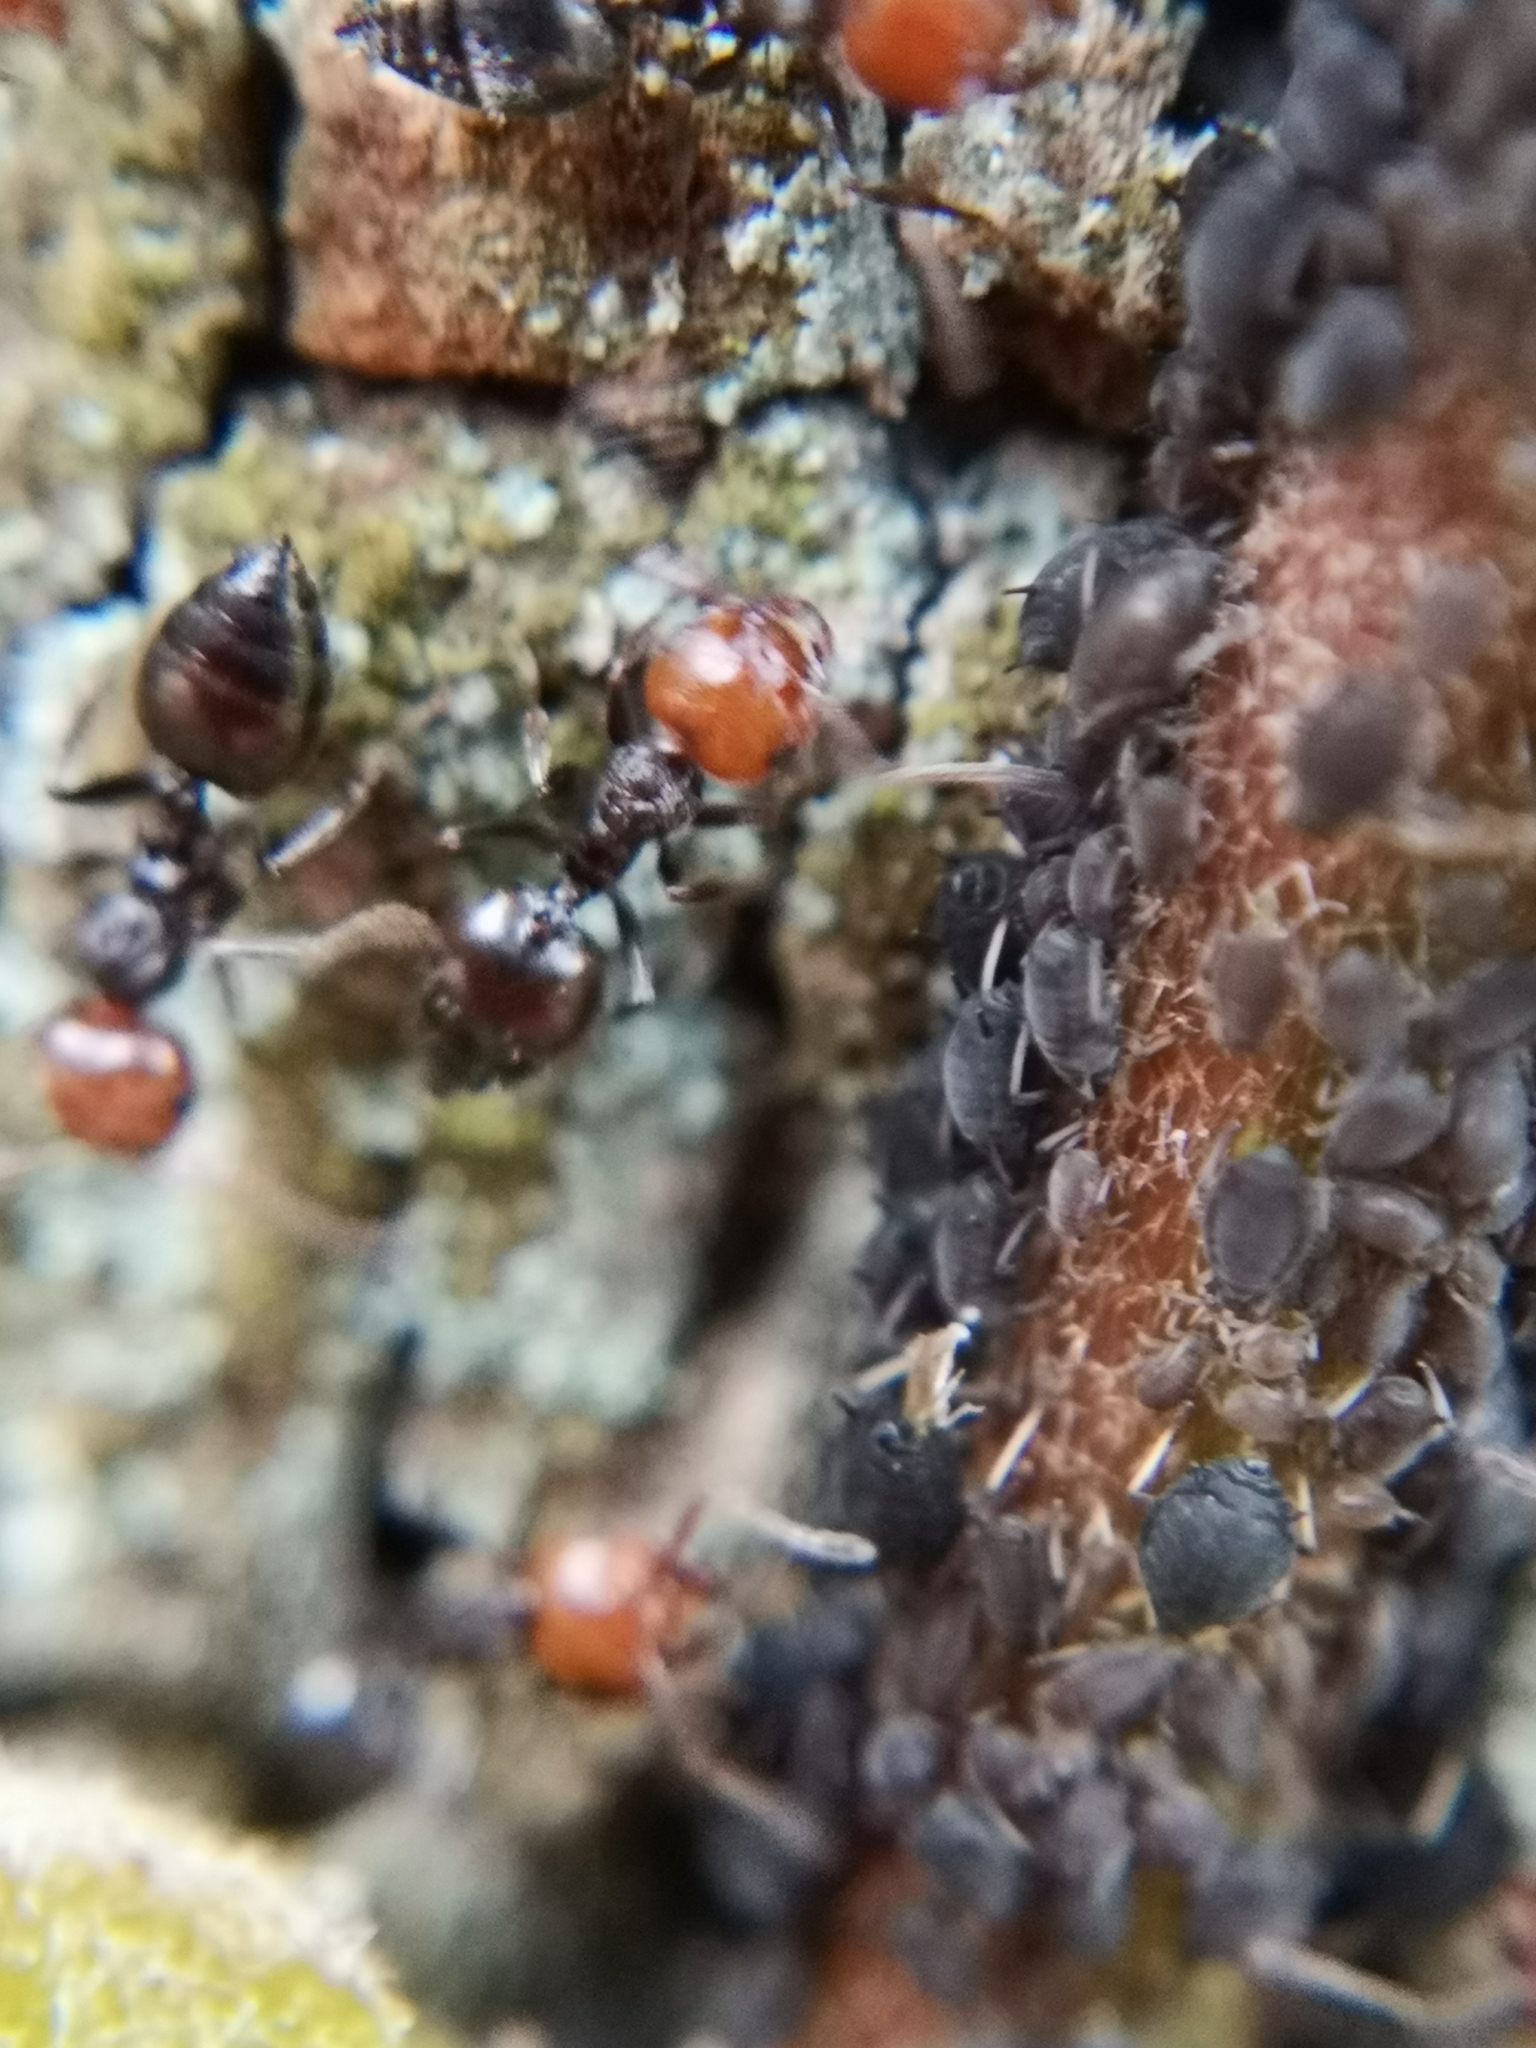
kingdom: Animalia
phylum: Arthropoda
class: Insecta
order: Hymenoptera
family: Formicidae
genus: Crematogaster
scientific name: Crematogaster scutellaris
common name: Fourmi du liège
